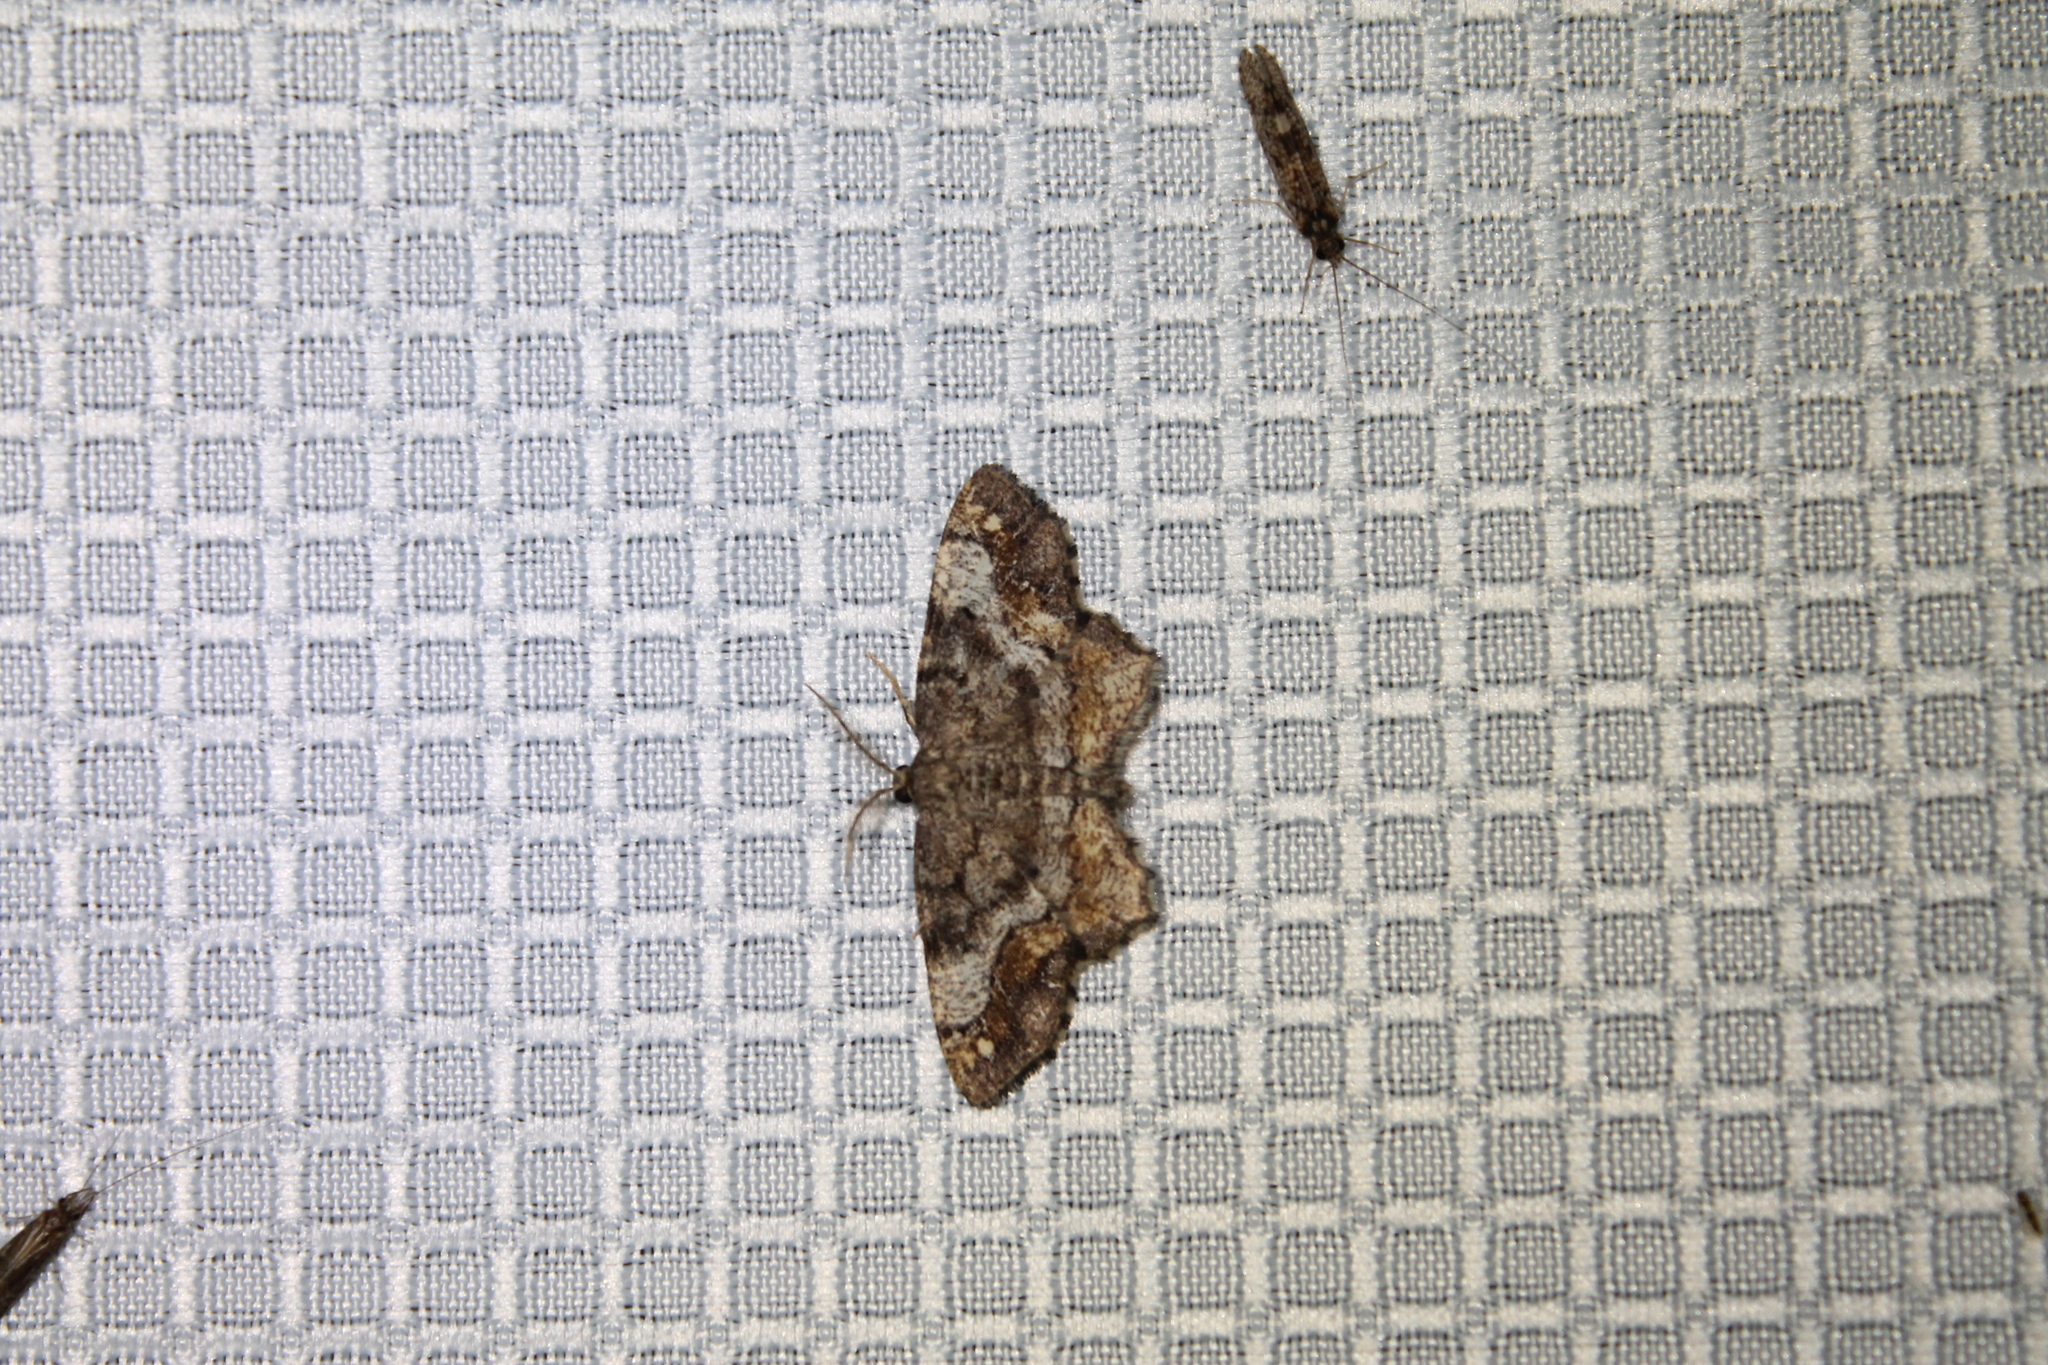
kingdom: Animalia
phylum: Arthropoda
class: Insecta
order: Lepidoptera
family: Geometridae
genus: Hypagyrtis
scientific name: Hypagyrtis unipunctata
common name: One-spotted variant
